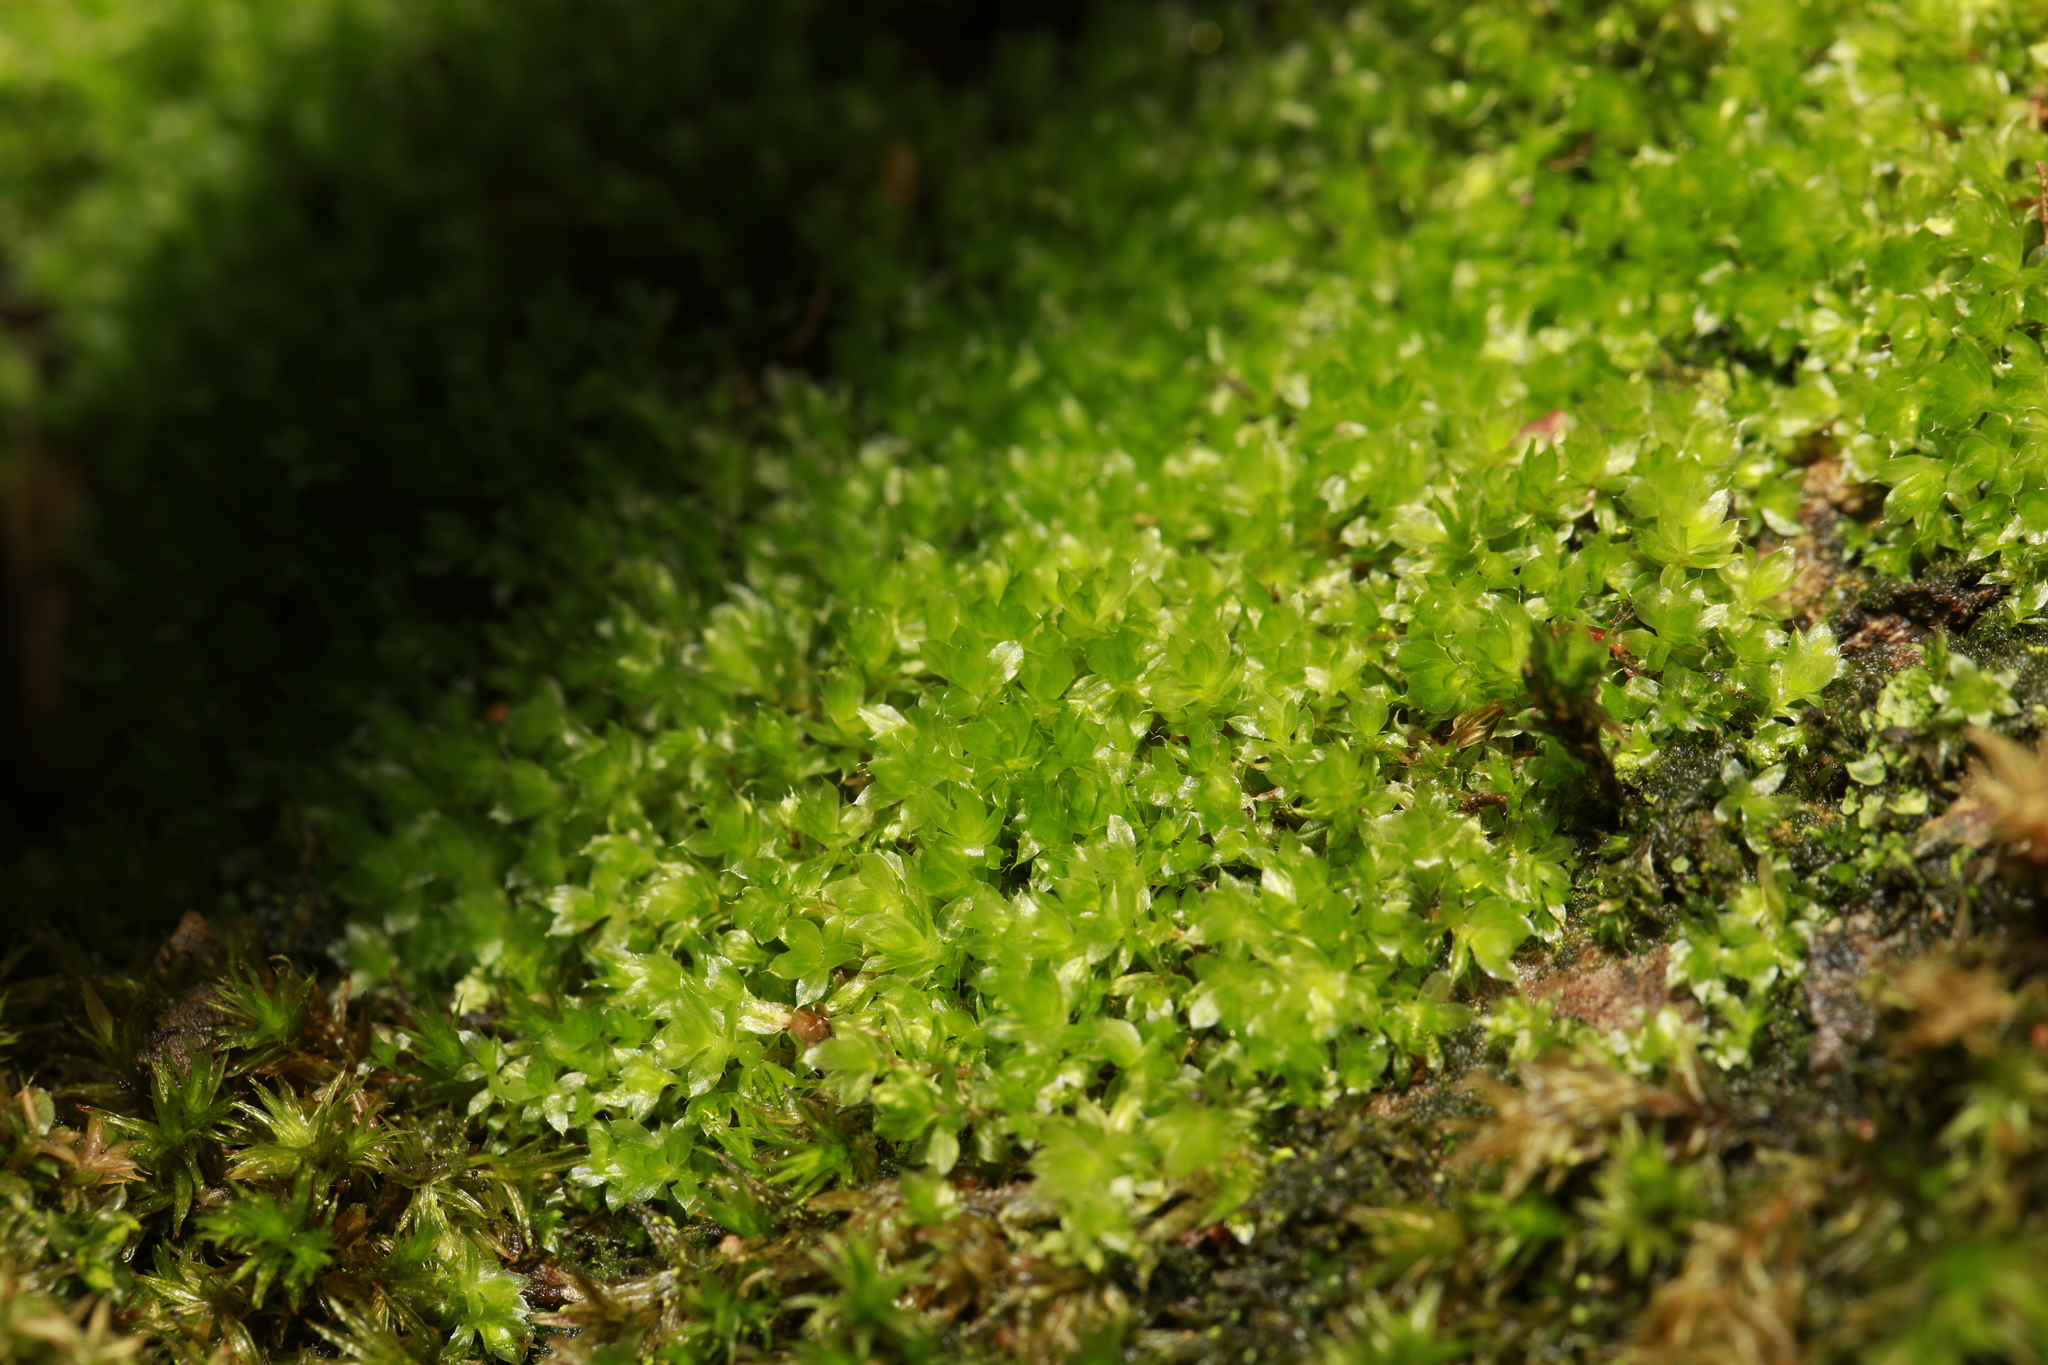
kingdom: Plantae
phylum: Bryophyta
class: Bryopsida
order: Bryales
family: Bryaceae
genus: Rosulabryum
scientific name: Rosulabryum capillare
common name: Capillary thread-moss
